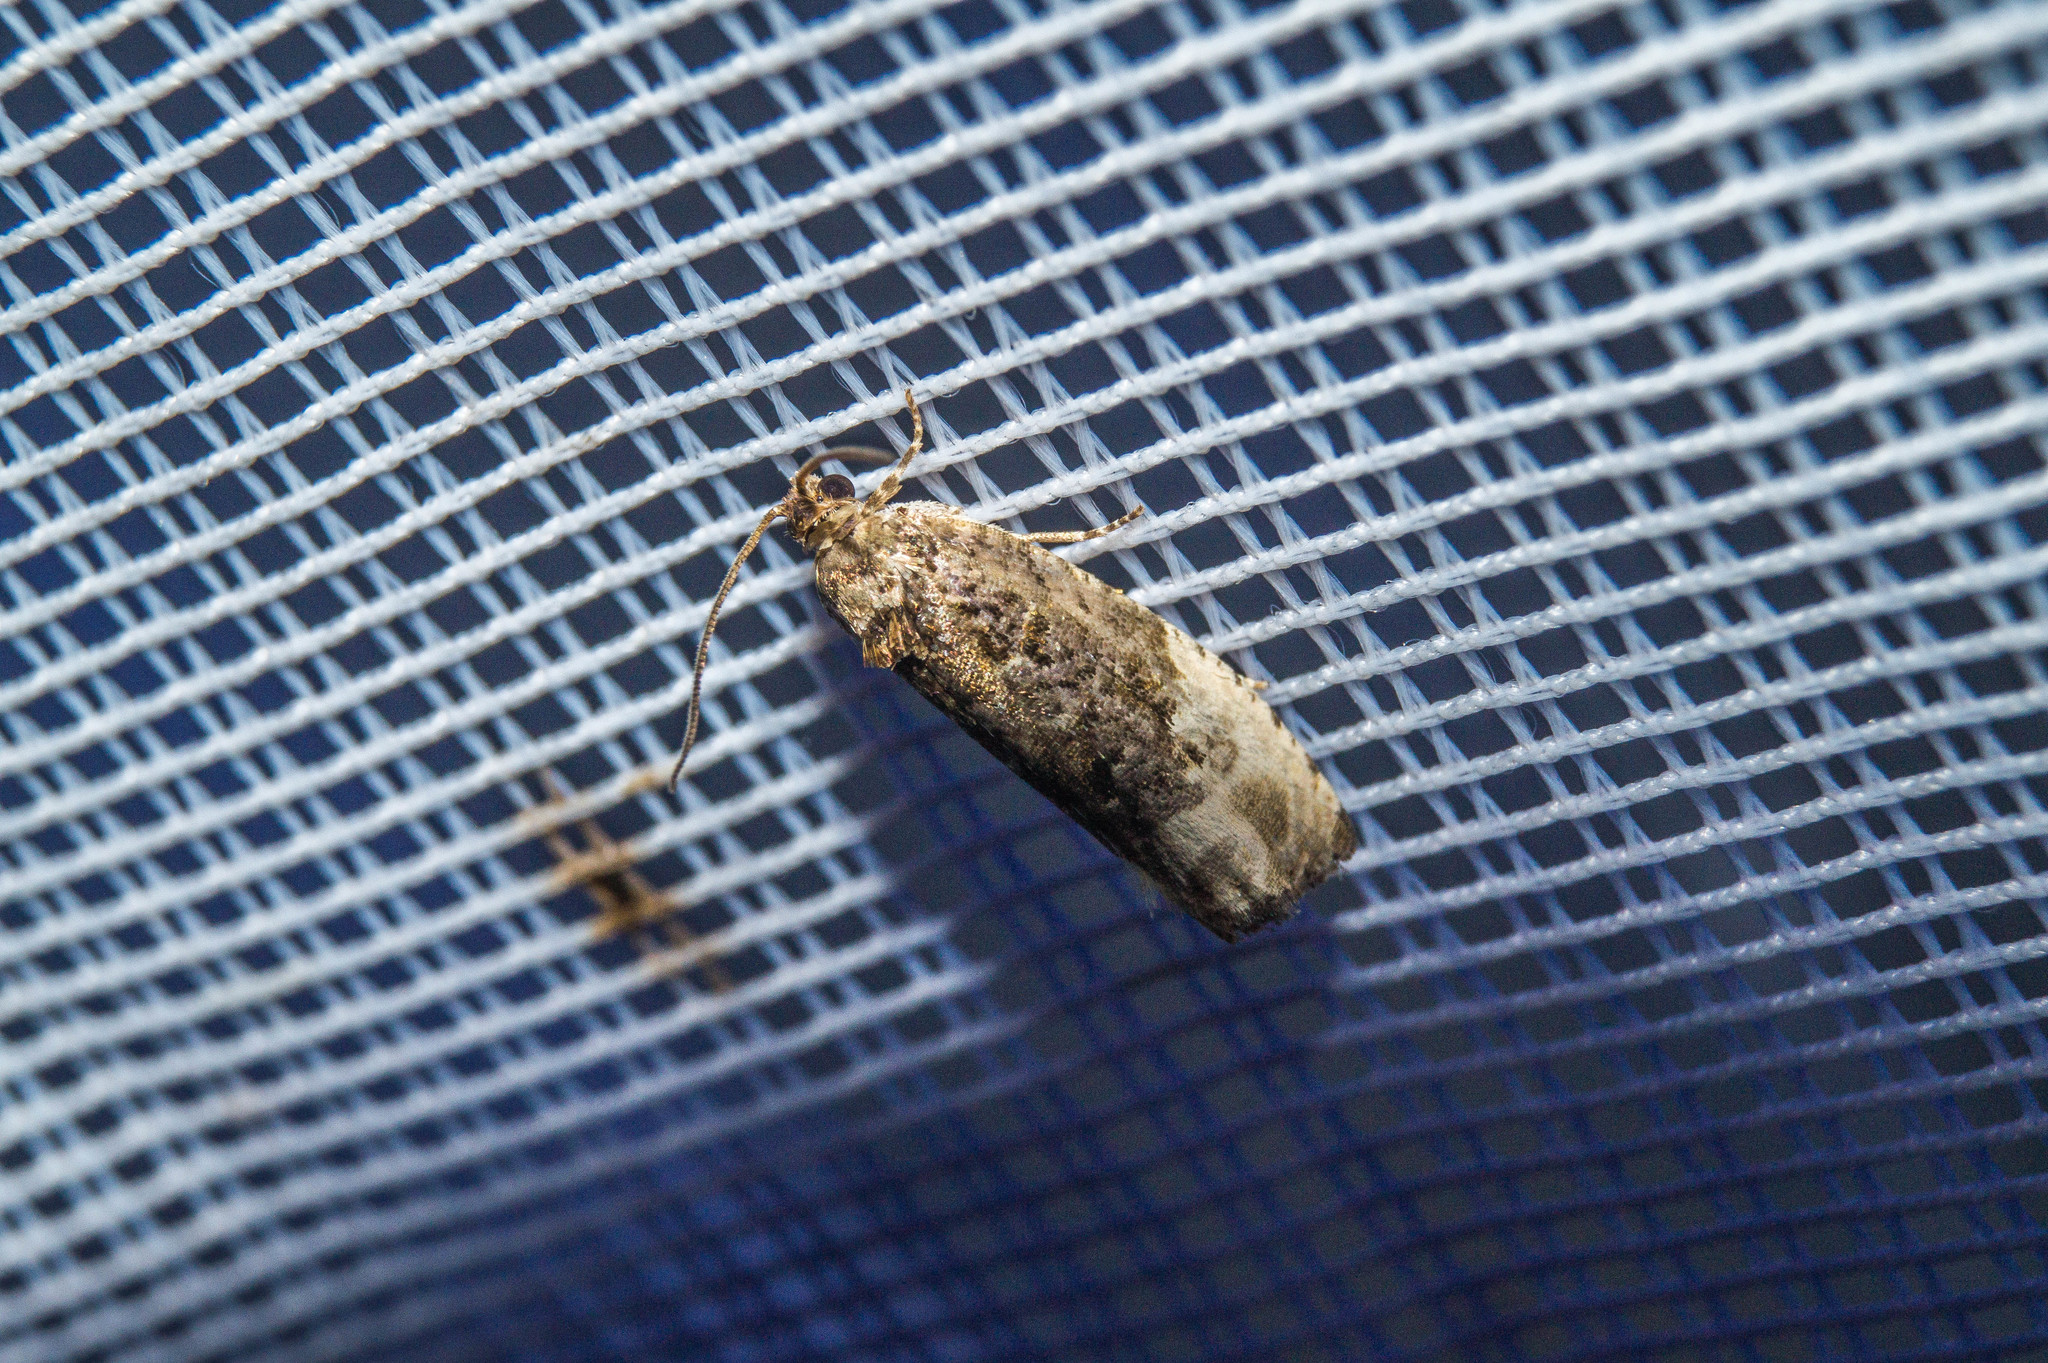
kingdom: Animalia
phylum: Arthropoda
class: Insecta
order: Lepidoptera
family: Tortricidae
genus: Hedya
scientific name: Hedya nubiferana
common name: Marbled orchard tortrix
